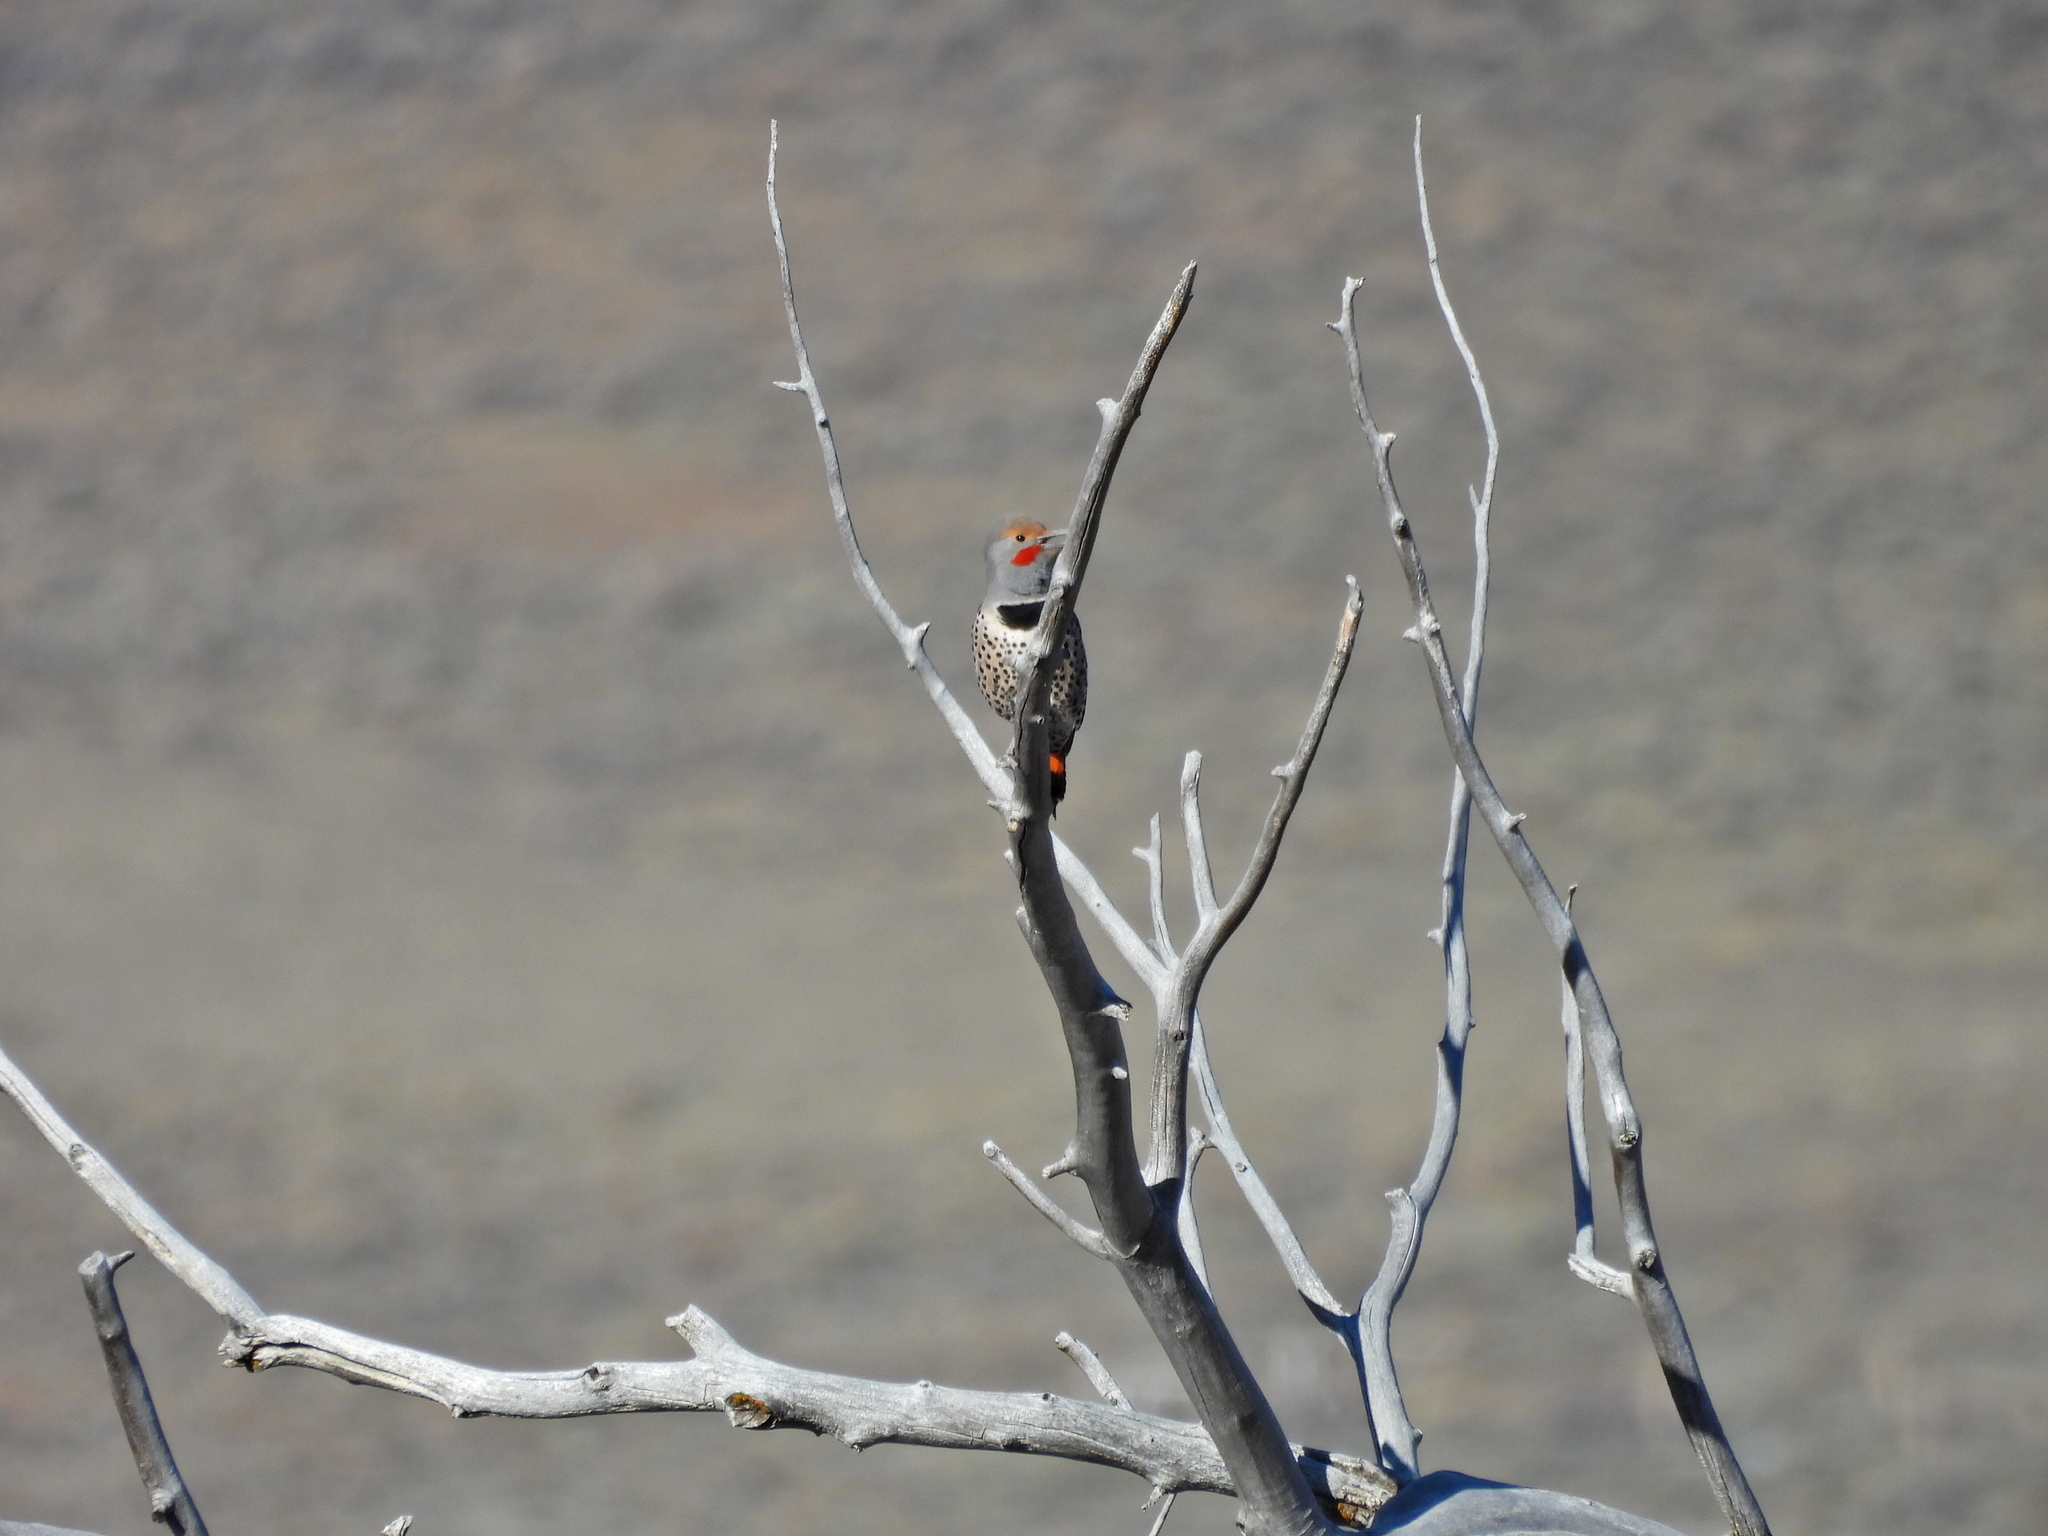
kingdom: Animalia
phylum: Chordata
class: Aves
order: Piciformes
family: Picidae
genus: Colaptes
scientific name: Colaptes auratus
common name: Northern flicker
